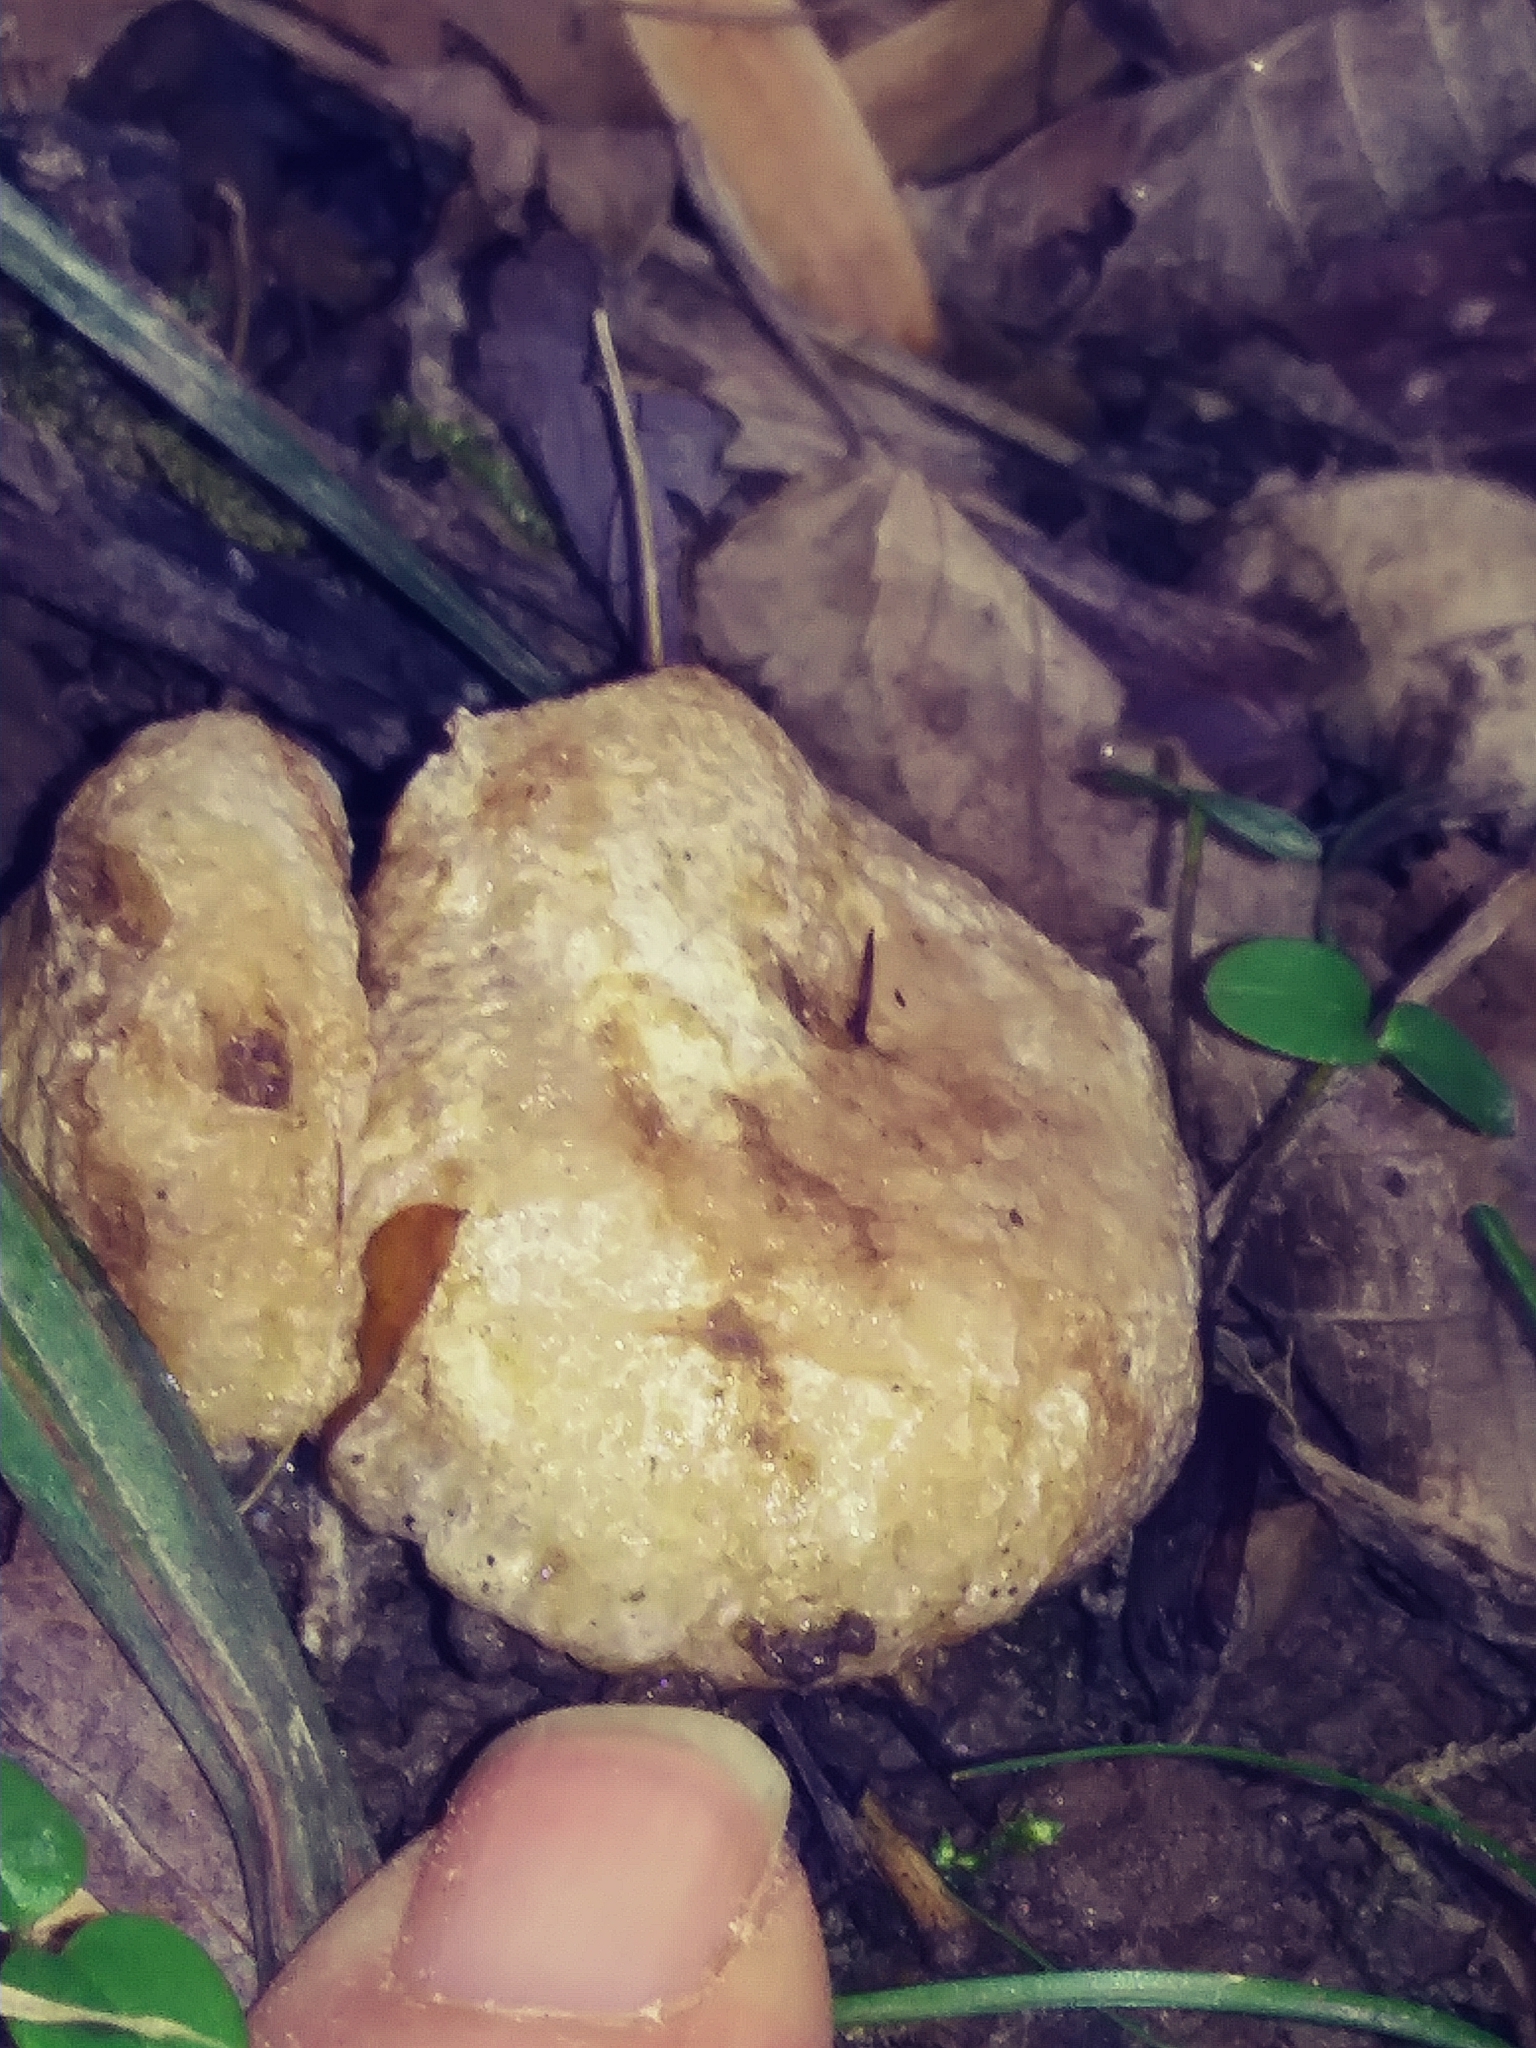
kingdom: Fungi
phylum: Basidiomycota
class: Agaricomycetes
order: Agaricales
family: Entolomataceae
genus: Entoloma
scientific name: Entoloma abortivum
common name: Aborted entoloma
